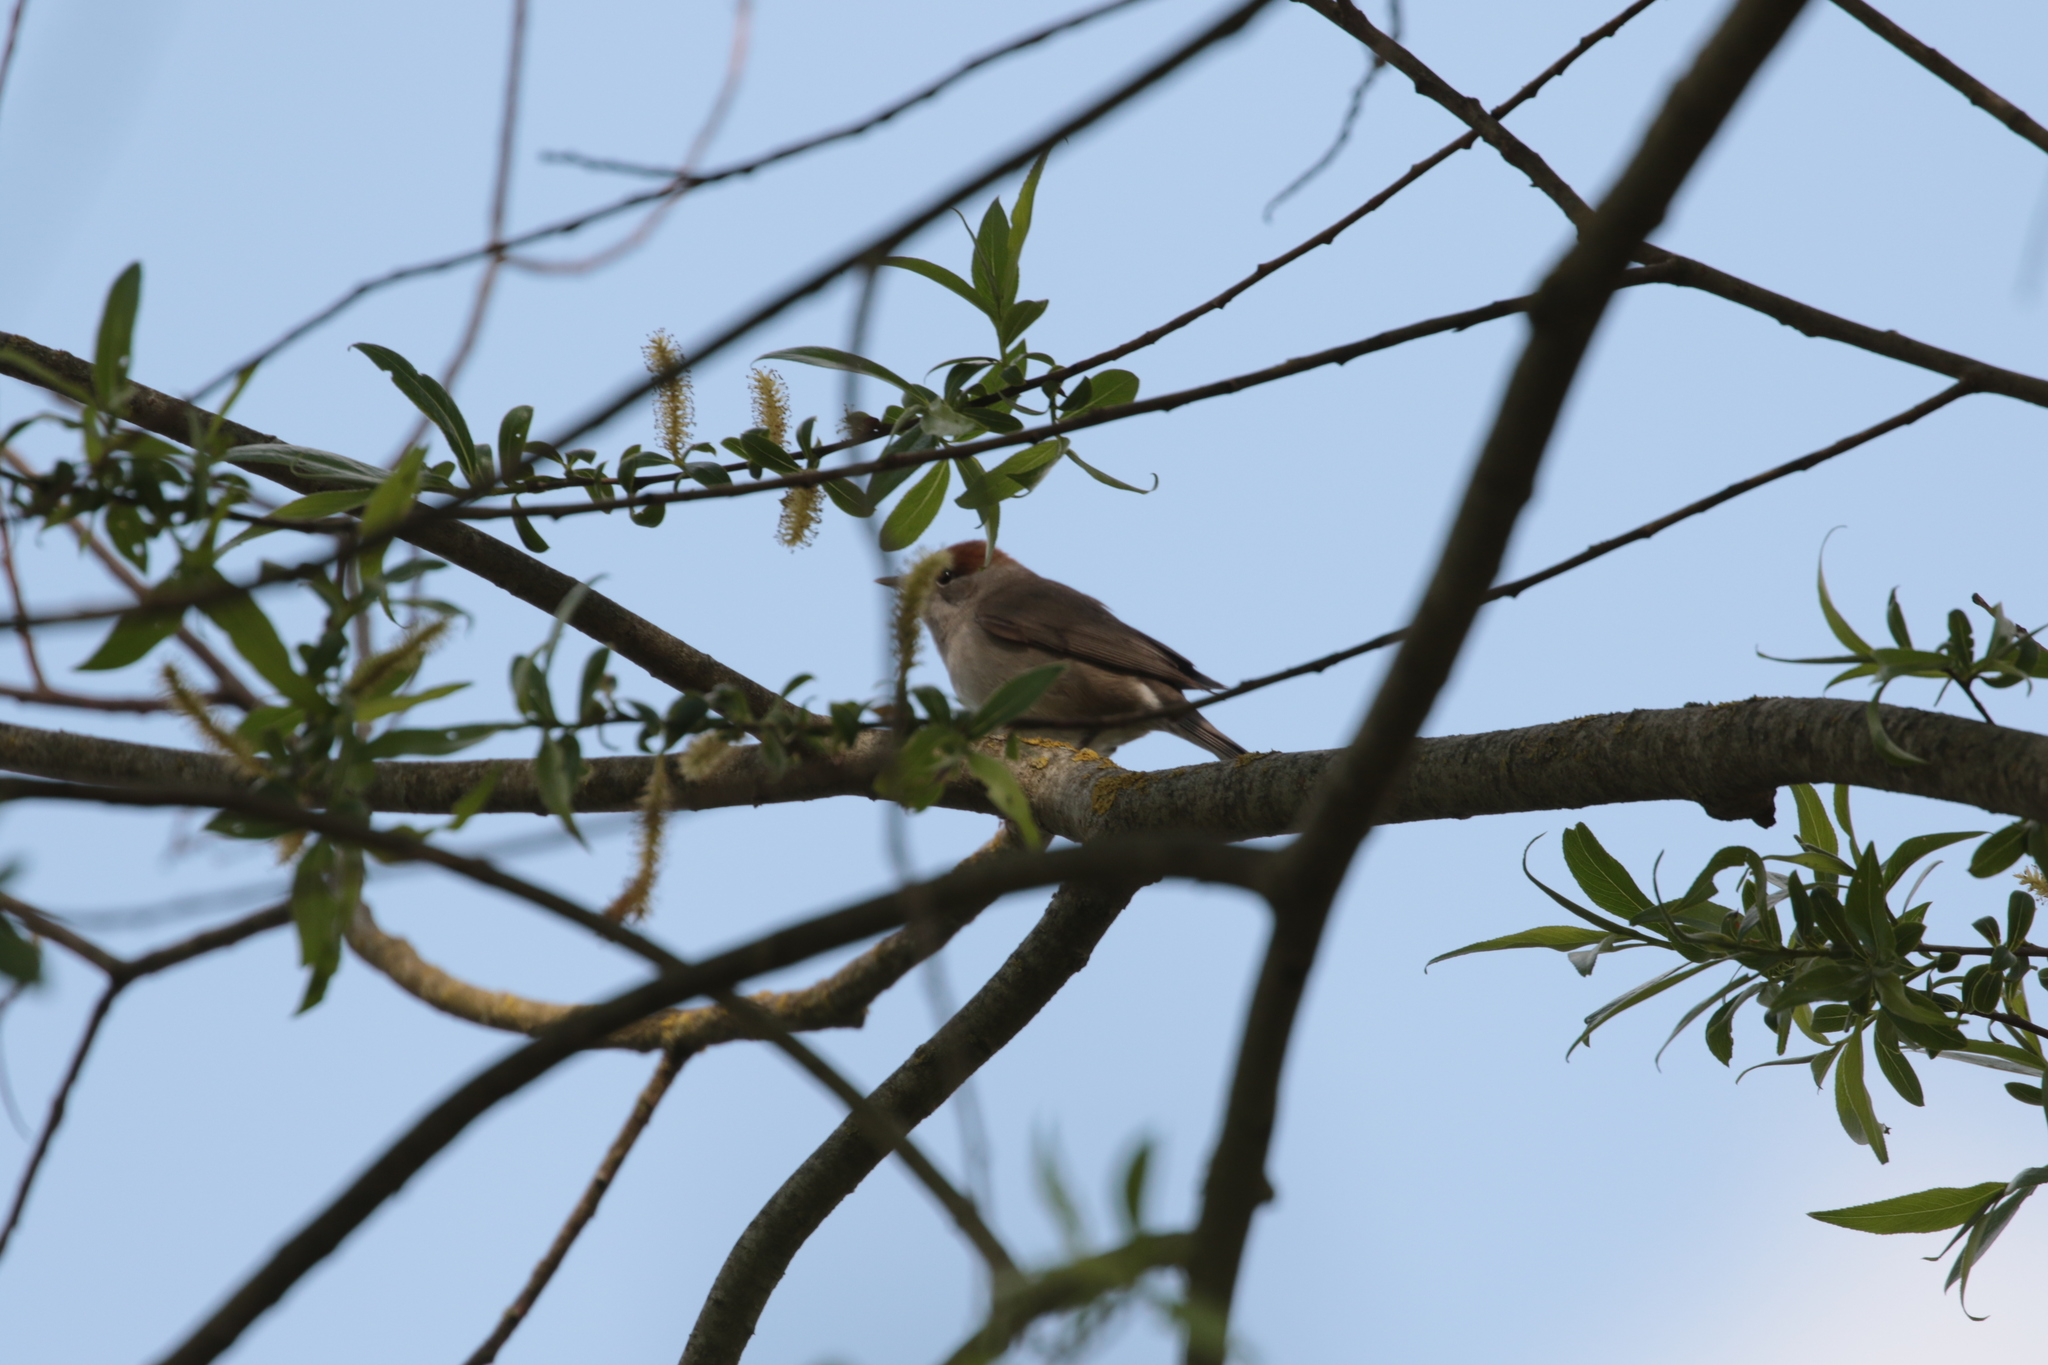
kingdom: Animalia
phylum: Chordata
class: Aves
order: Passeriformes
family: Sylviidae
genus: Sylvia
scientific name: Sylvia atricapilla
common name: Eurasian blackcap
